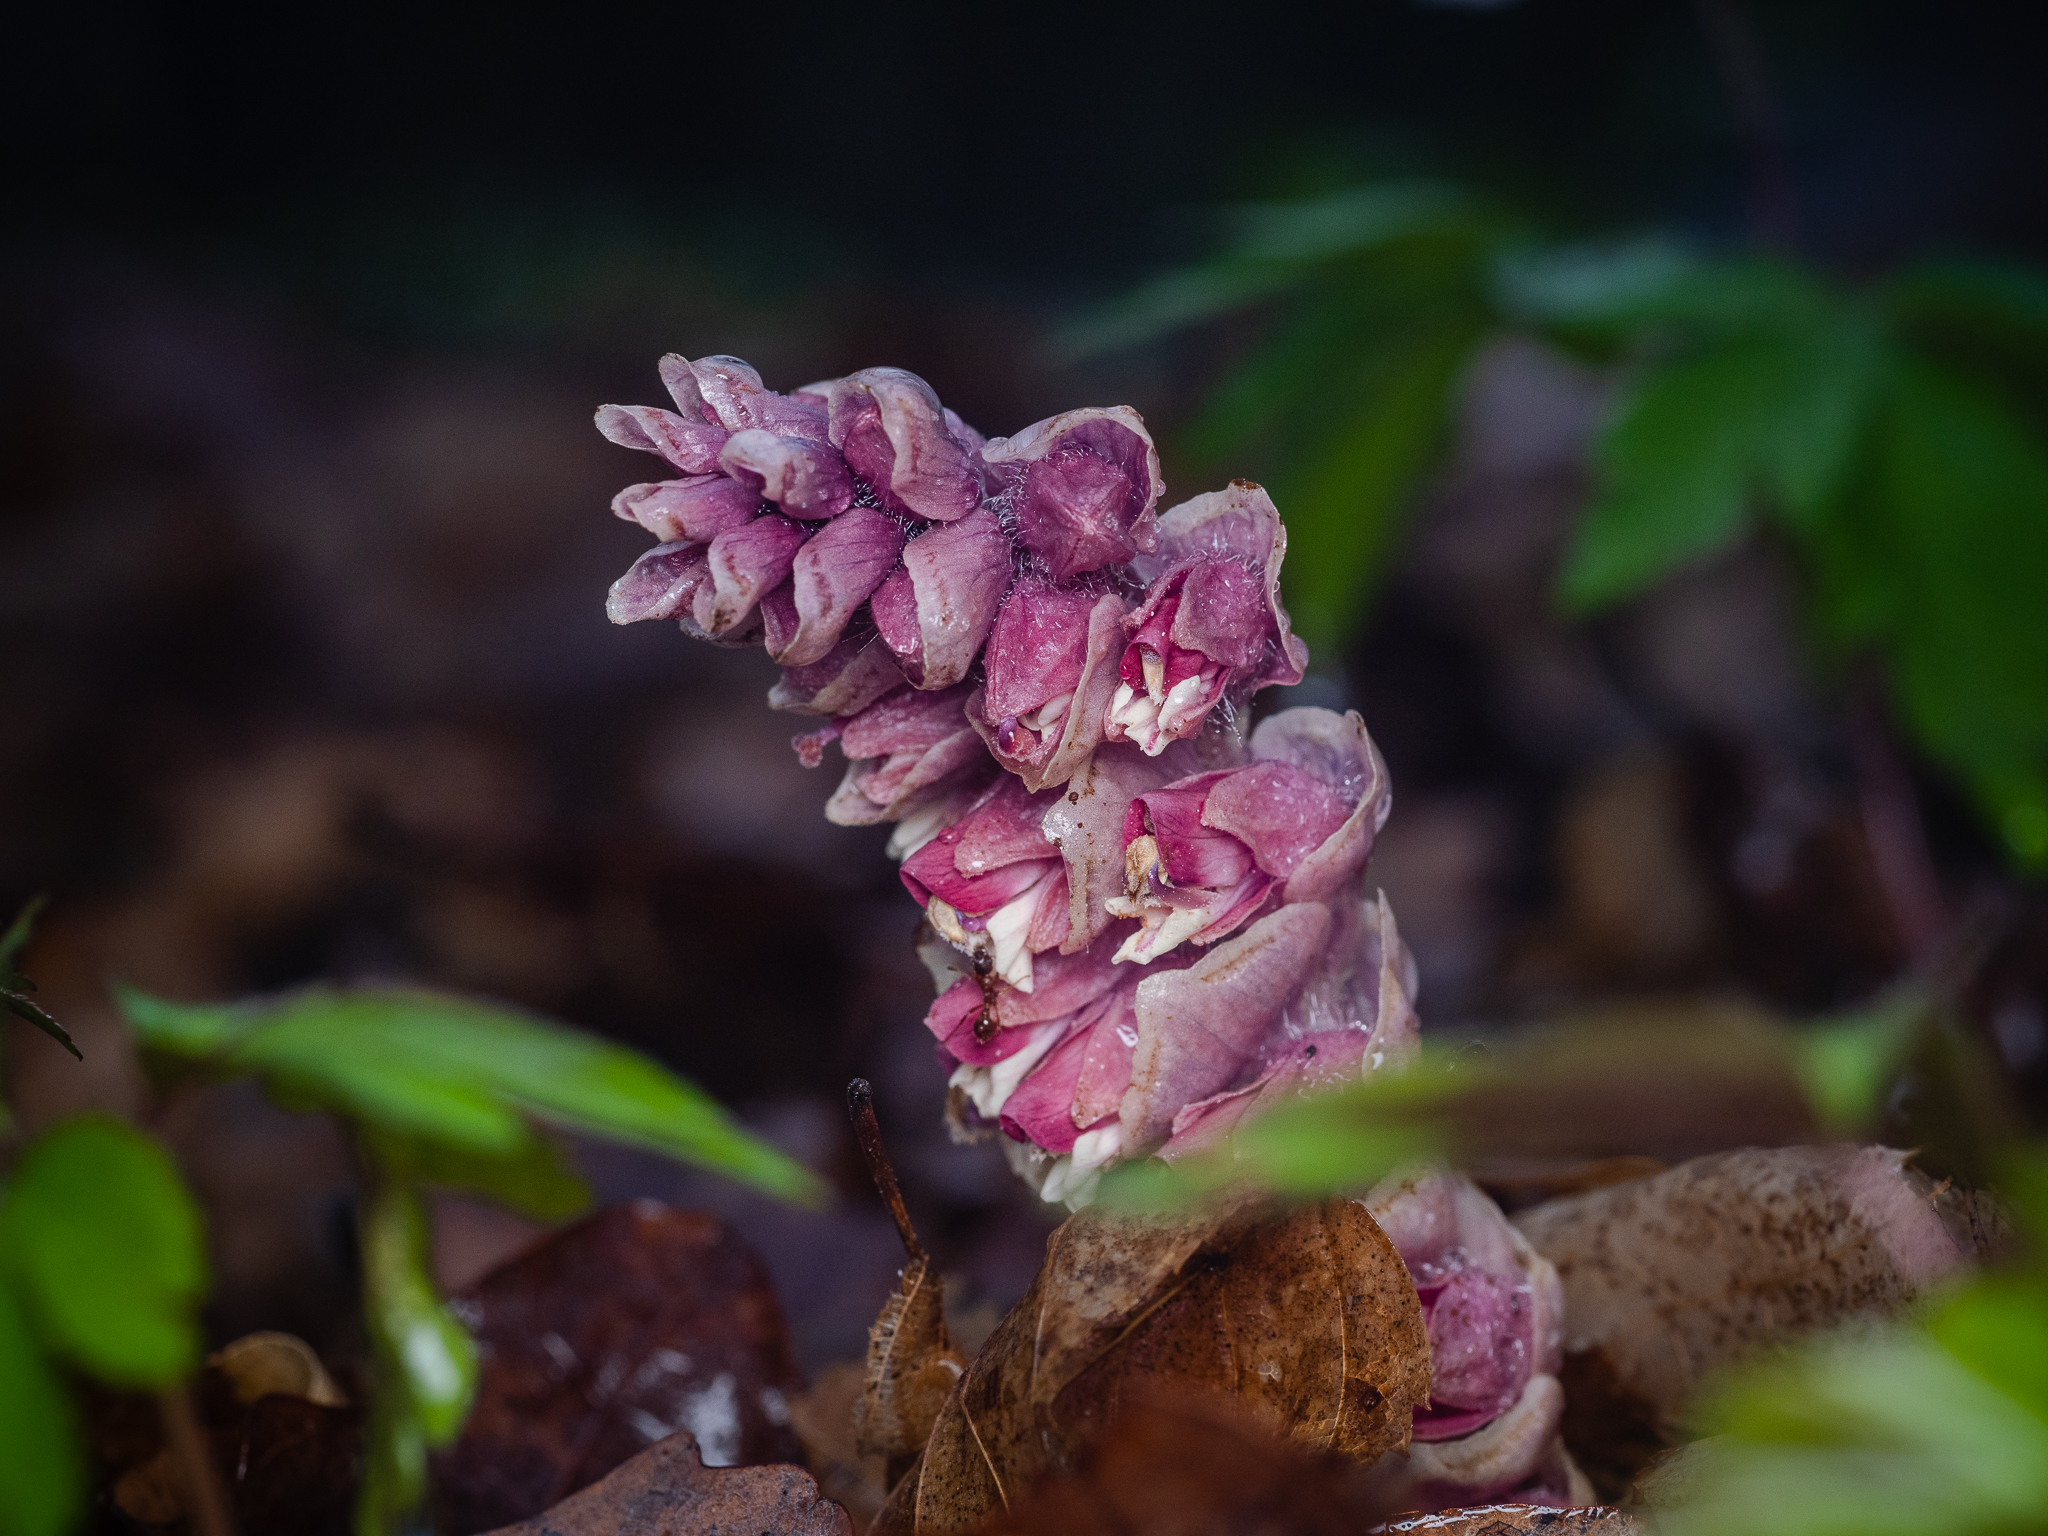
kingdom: Plantae
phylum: Tracheophyta
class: Magnoliopsida
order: Lamiales
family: Orobanchaceae
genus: Lathraea
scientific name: Lathraea squamaria
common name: Toothwort
